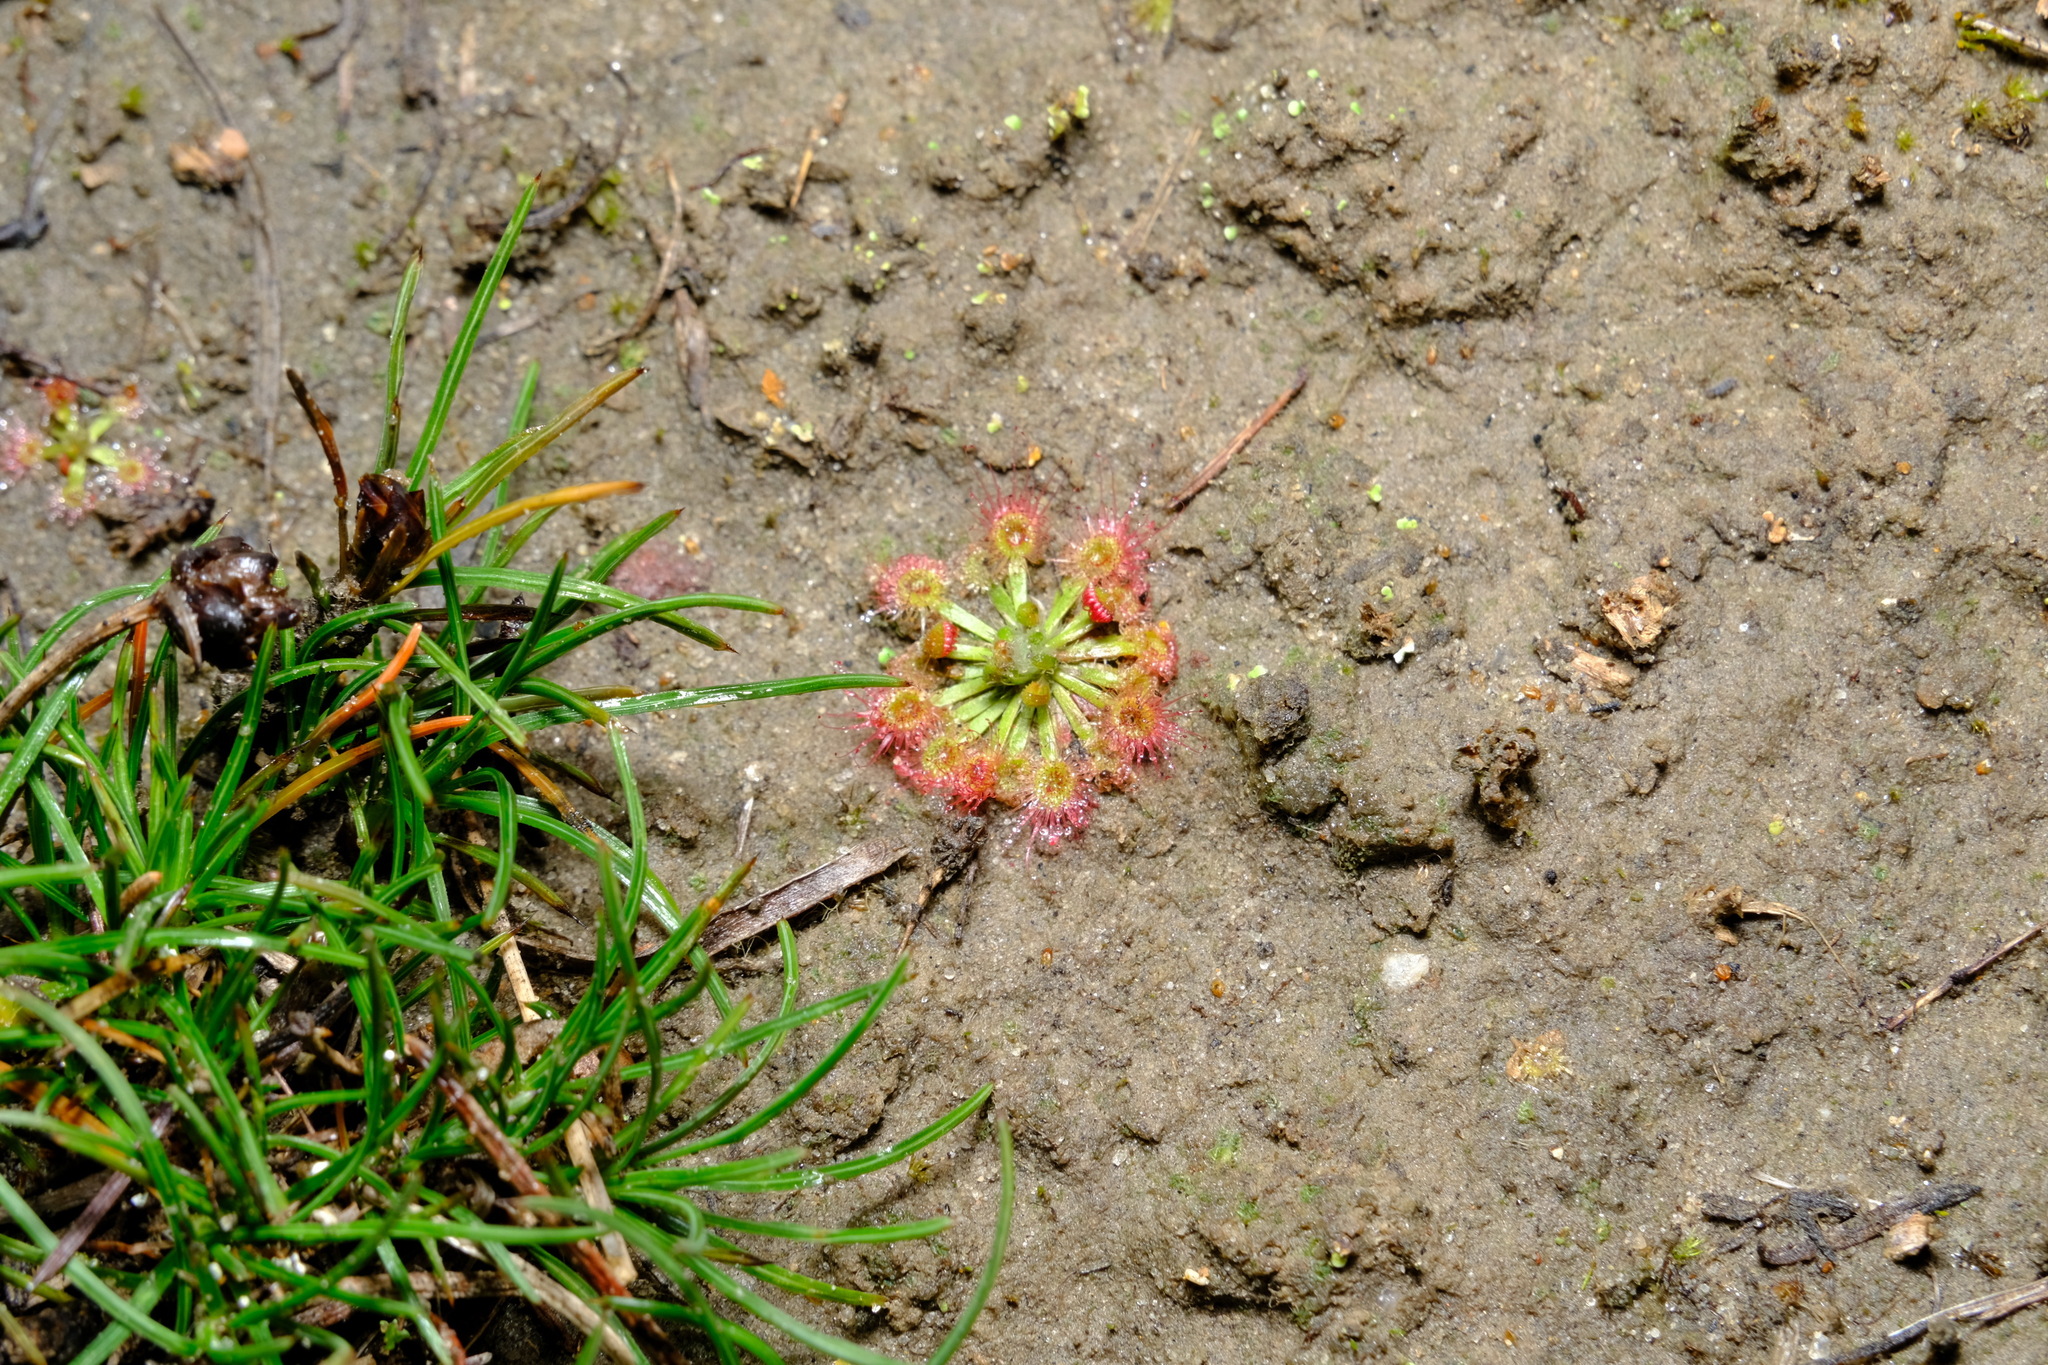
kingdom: Plantae
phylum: Tracheophyta
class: Magnoliopsida
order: Caryophyllales
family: Droseraceae
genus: Drosera
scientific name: Drosera spilos
